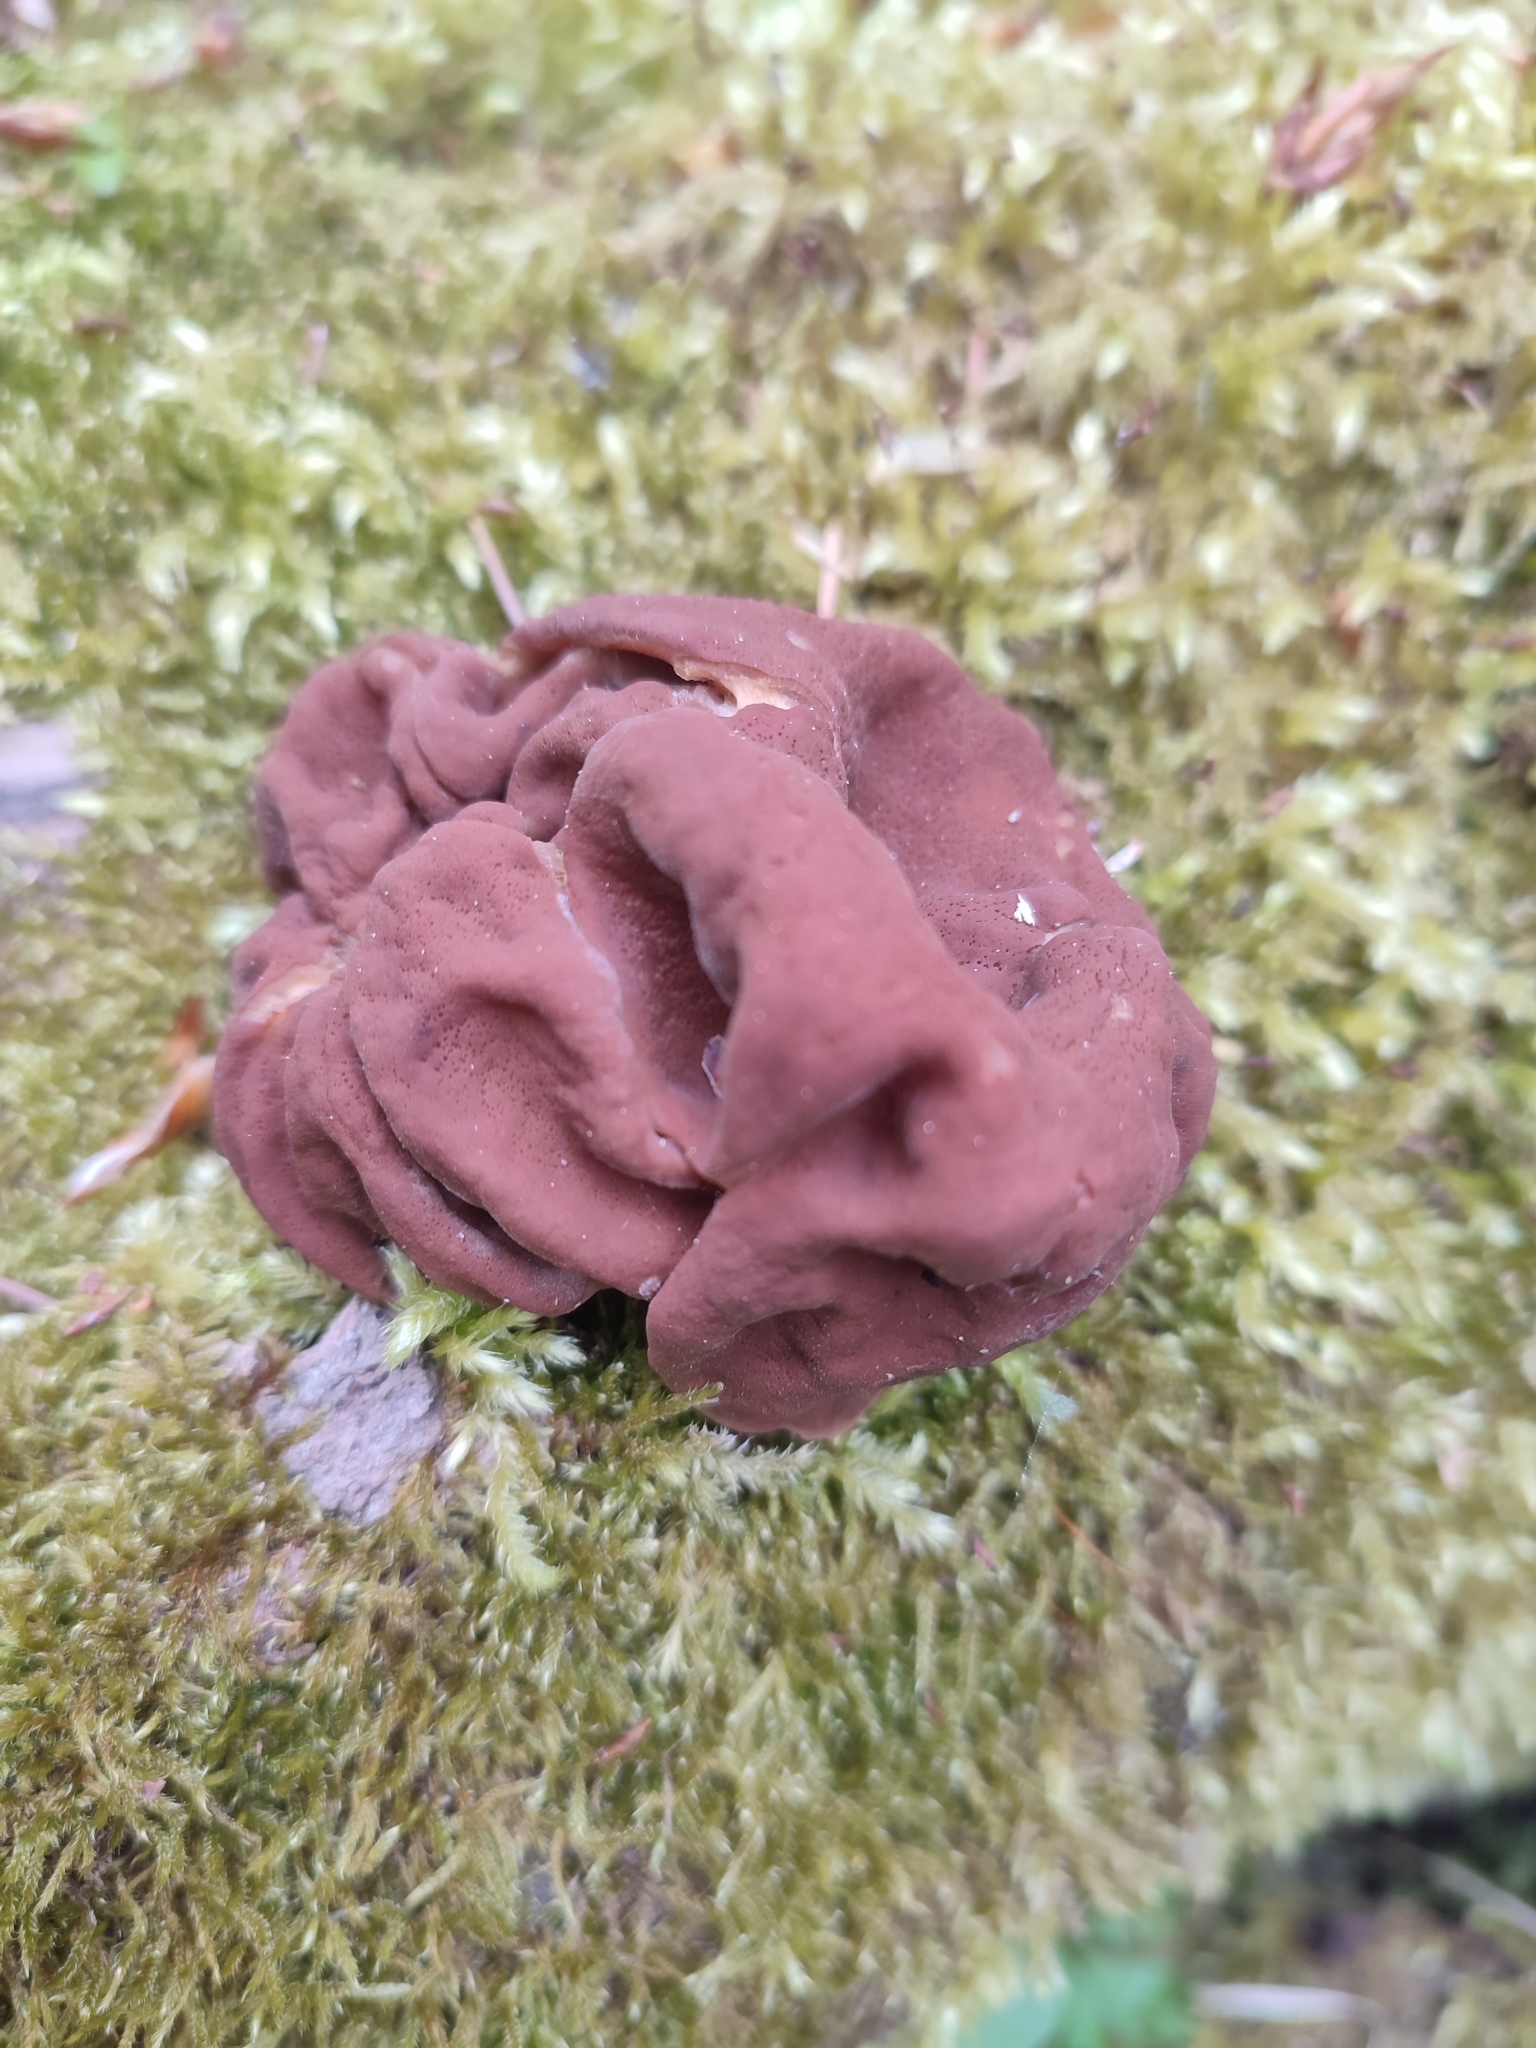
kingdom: Fungi
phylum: Ascomycota
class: Pezizomycetes
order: Pezizales
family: Discinaceae
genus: Gyromitra
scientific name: Gyromitra esculenta
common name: False morel
